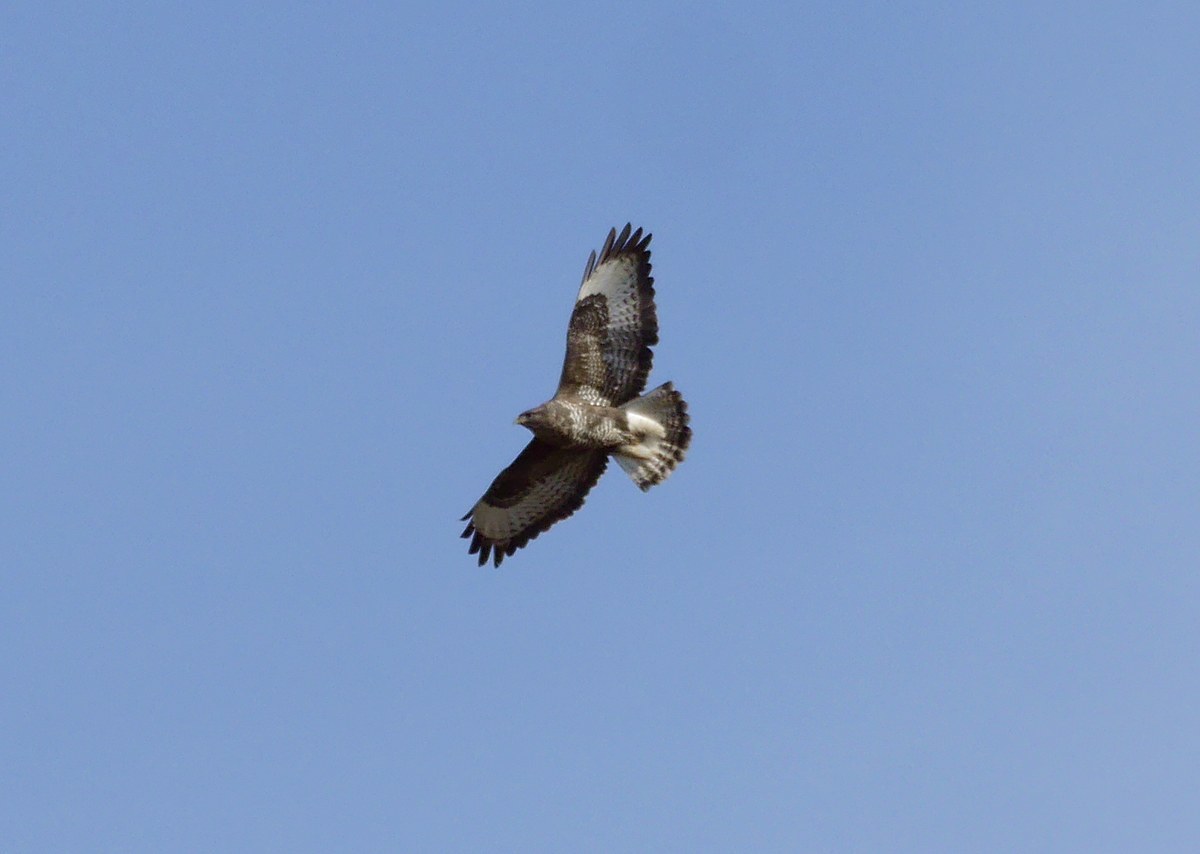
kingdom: Animalia
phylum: Chordata
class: Aves
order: Accipitriformes
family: Accipitridae
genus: Buteo
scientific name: Buteo buteo
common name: Common buzzard
